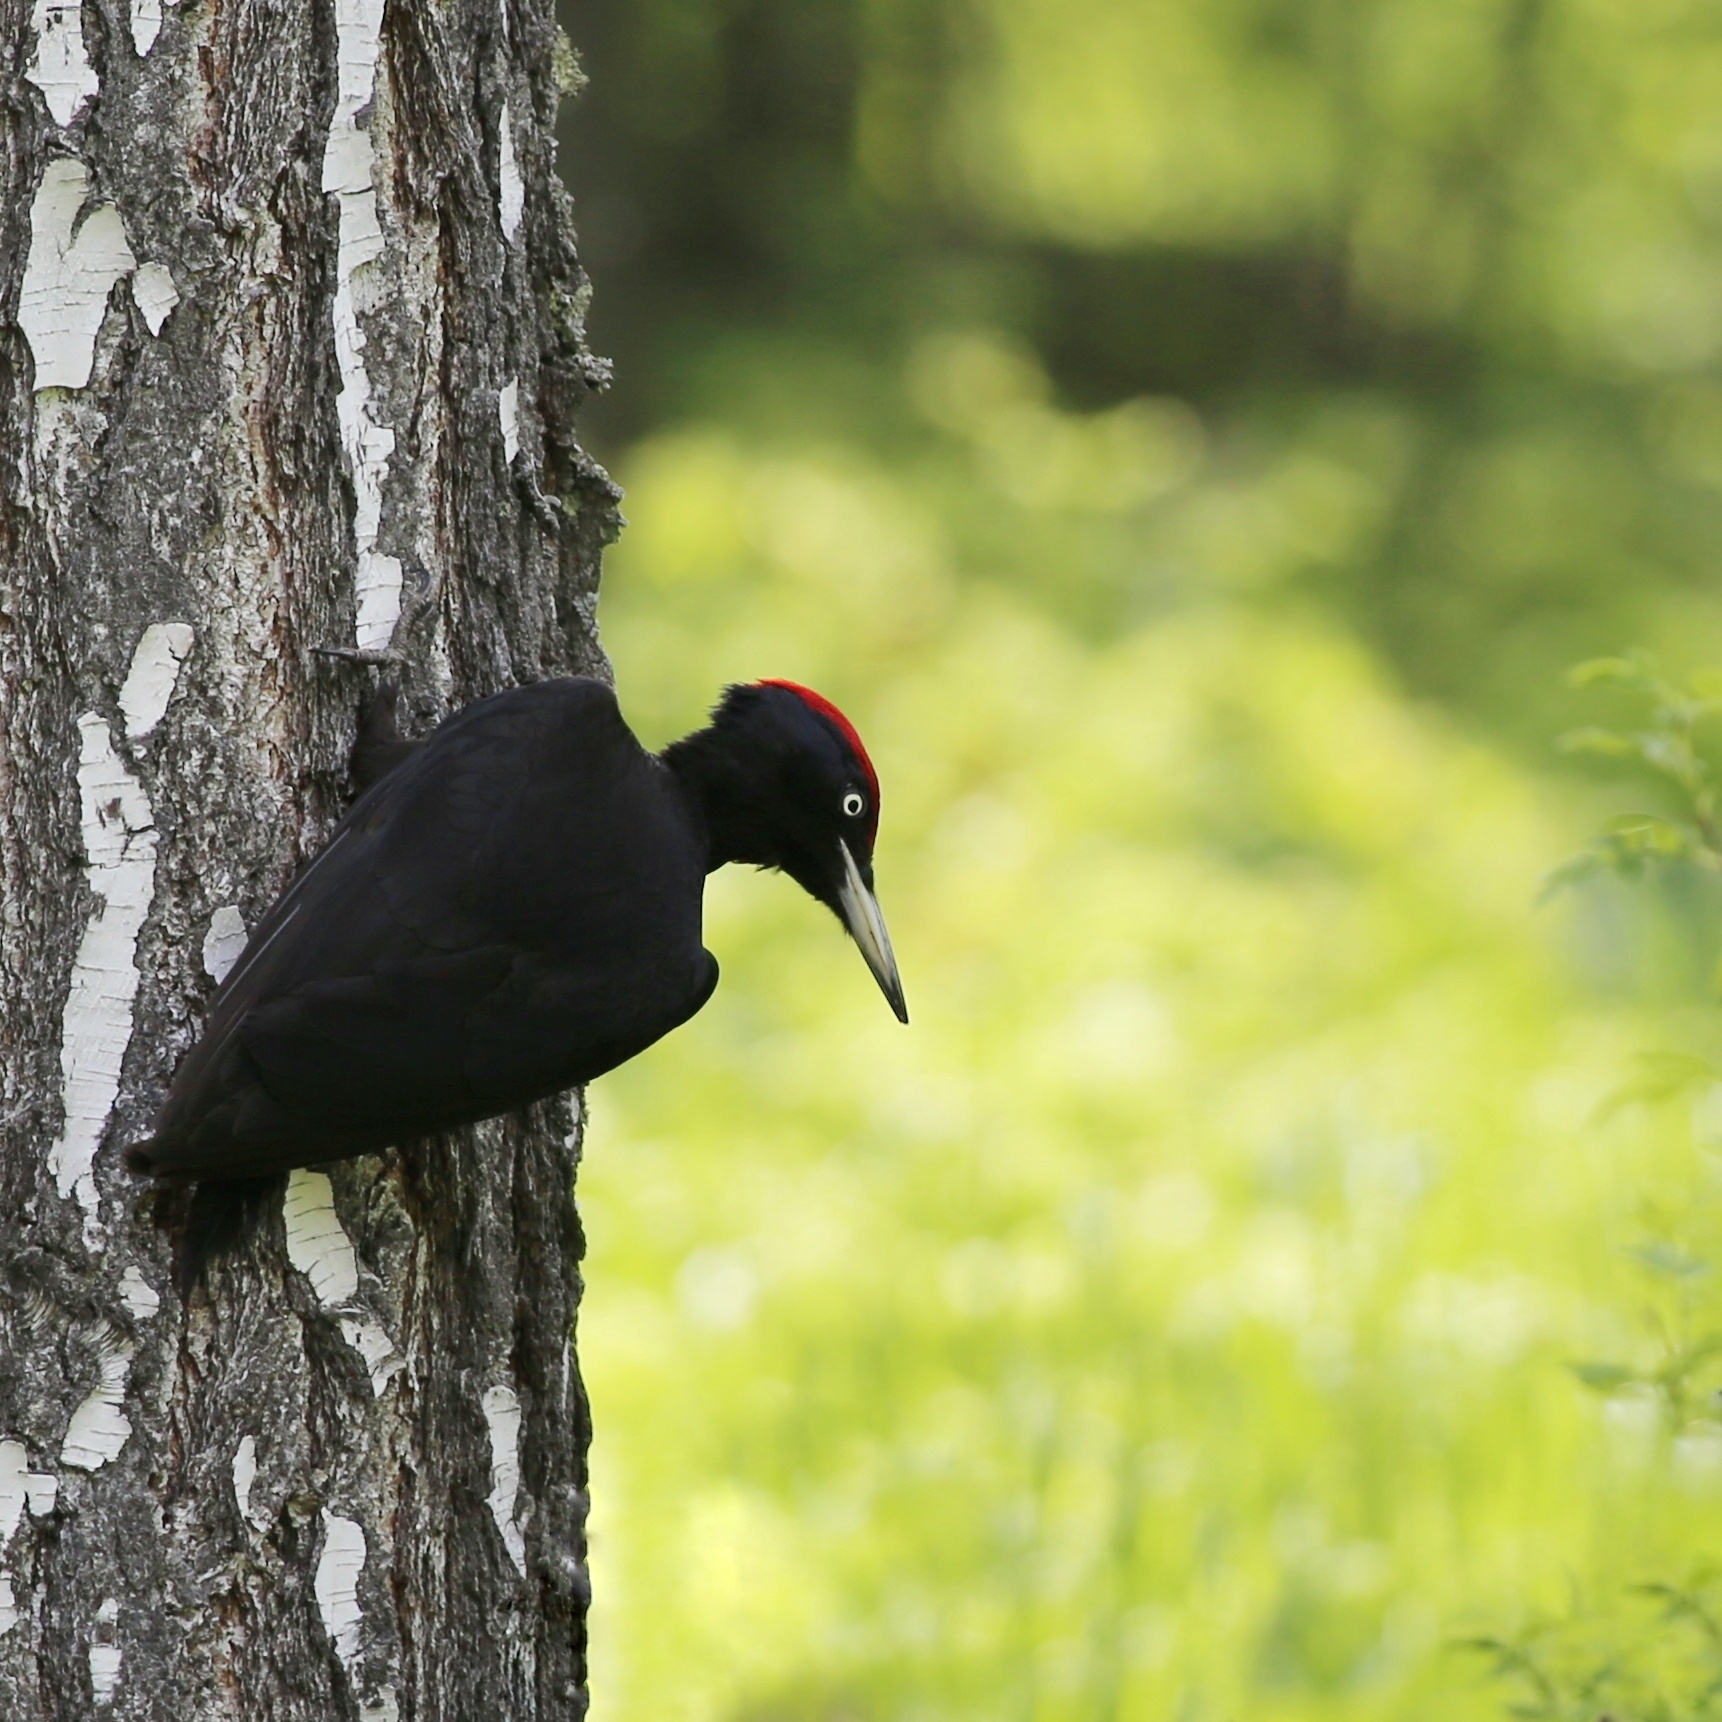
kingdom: Animalia
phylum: Chordata
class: Aves
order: Piciformes
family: Picidae
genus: Dryocopus
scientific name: Dryocopus martius
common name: Black woodpecker
